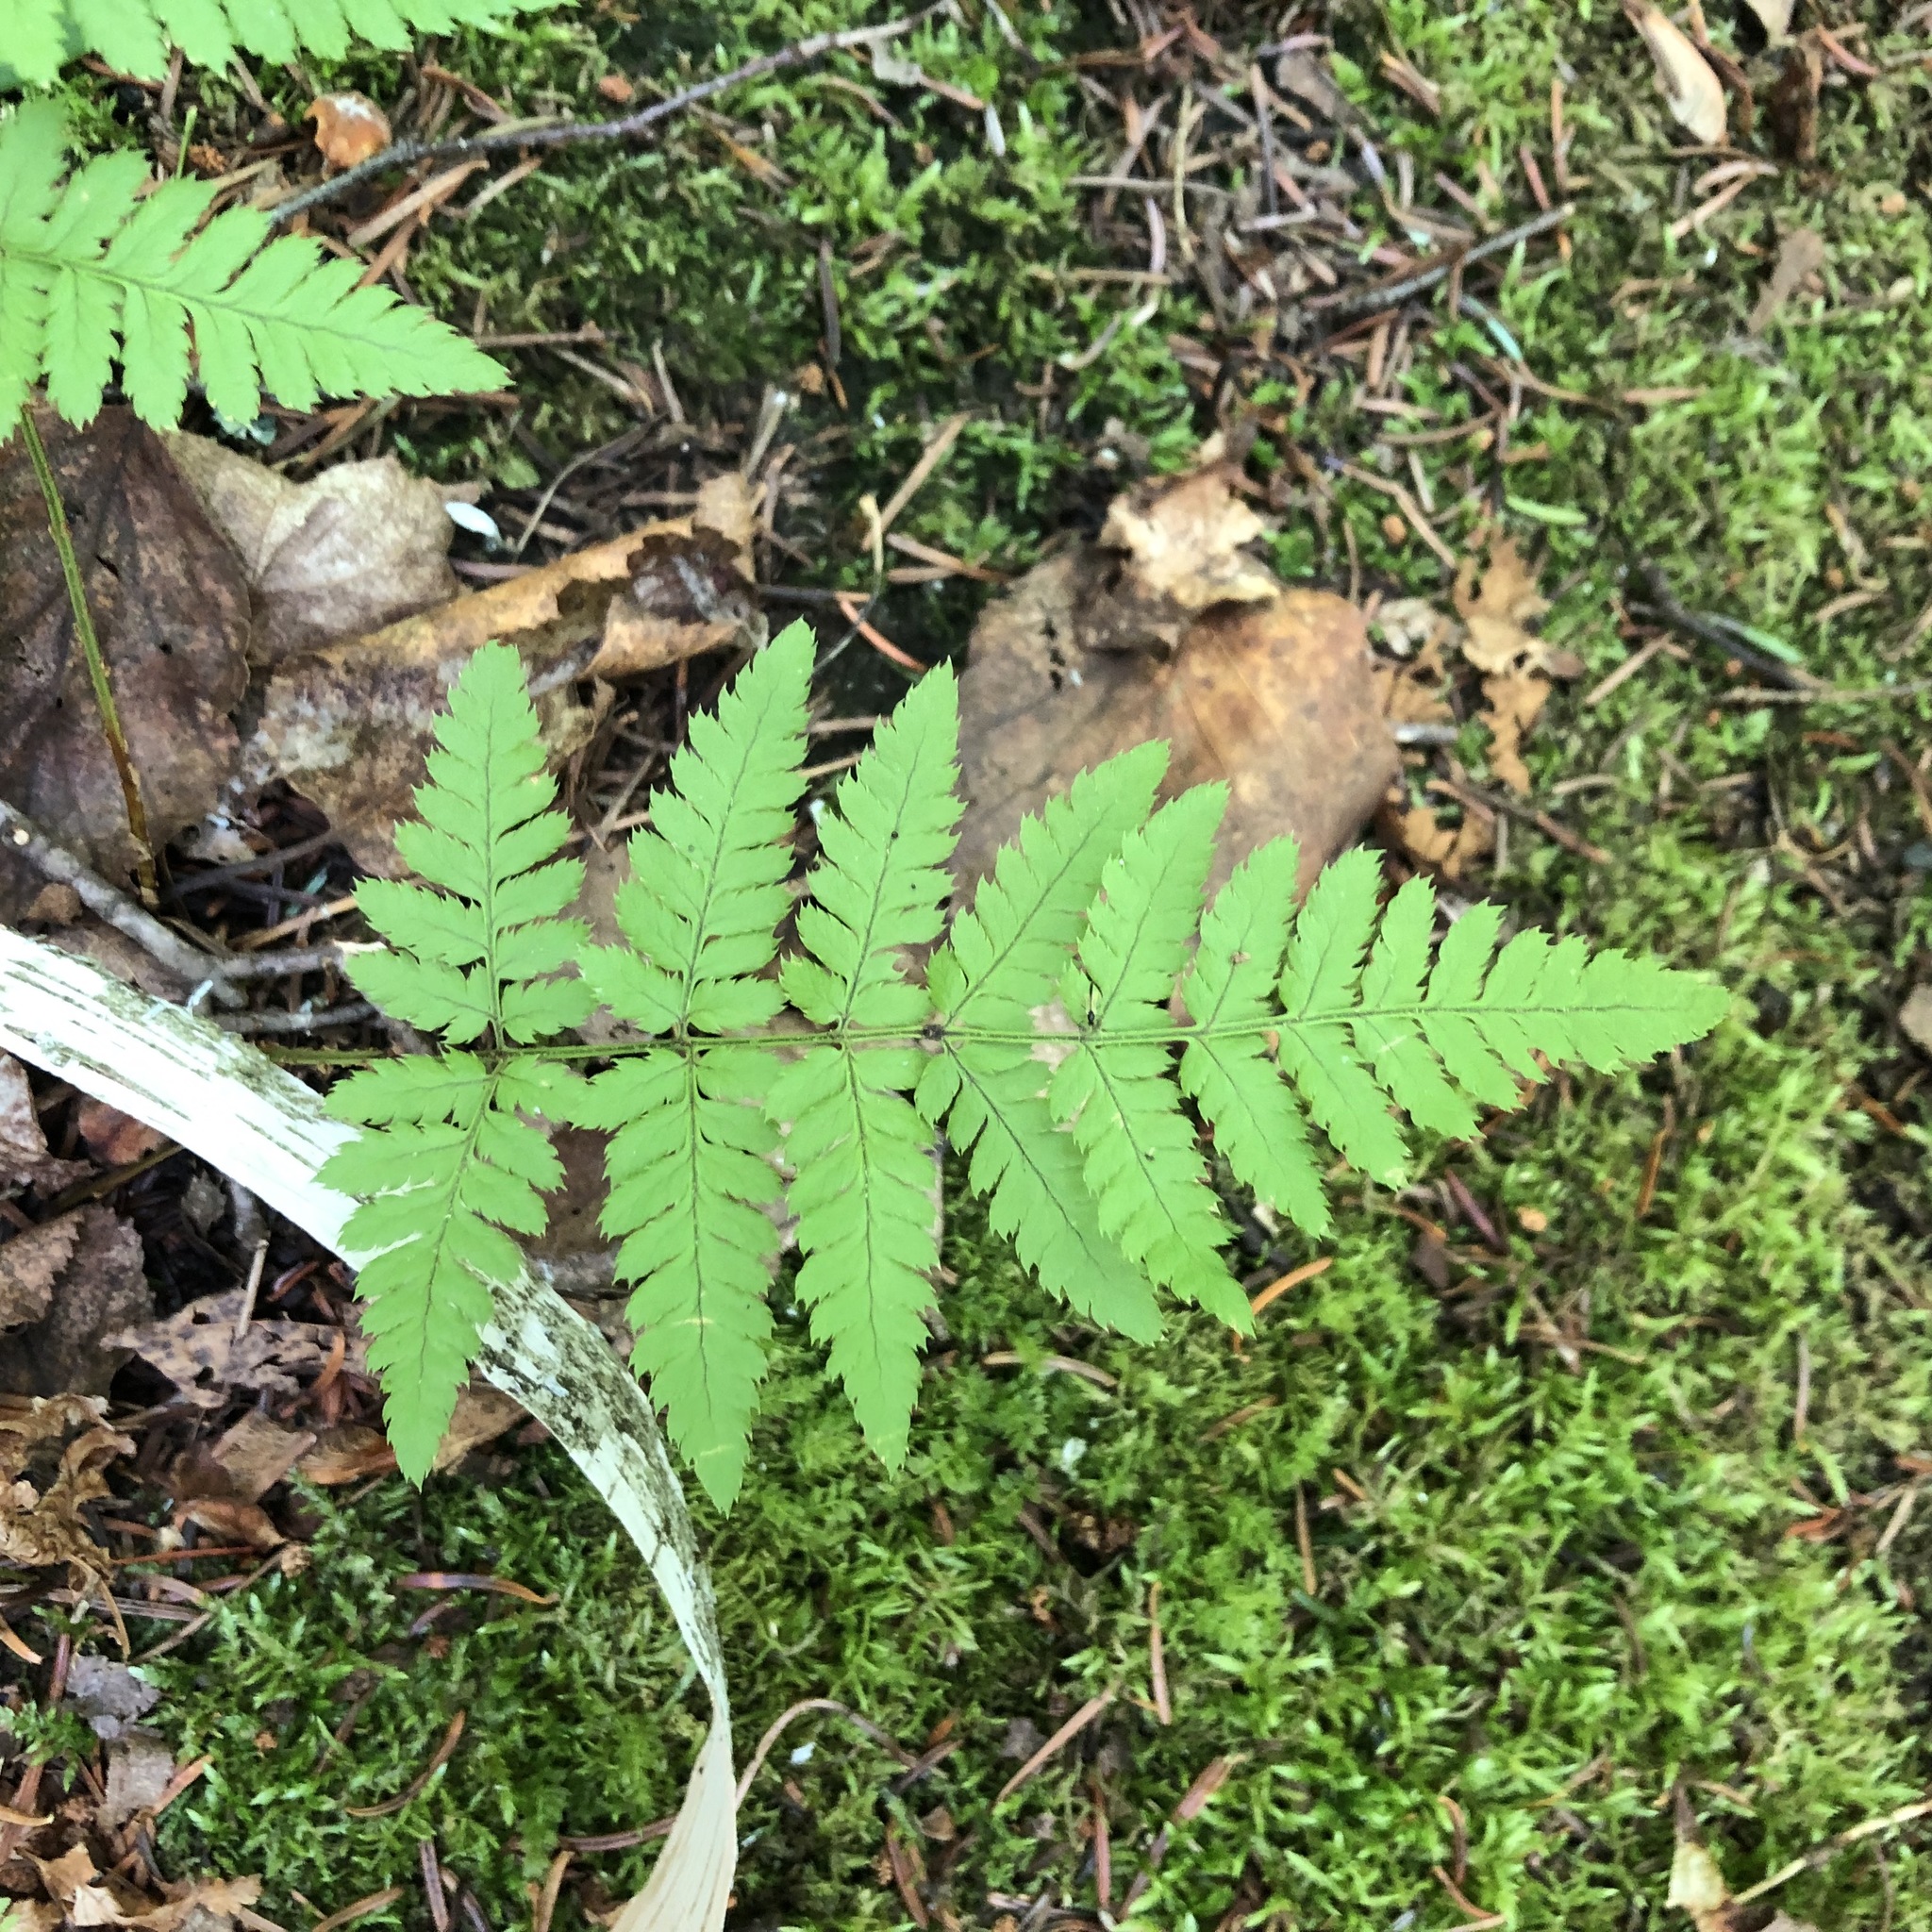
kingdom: Plantae
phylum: Tracheophyta
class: Polypodiopsida
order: Polypodiales
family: Dryopteridaceae
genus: Dryopteris
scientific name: Dryopteris carthusiana
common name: Narrow buckler-fern
